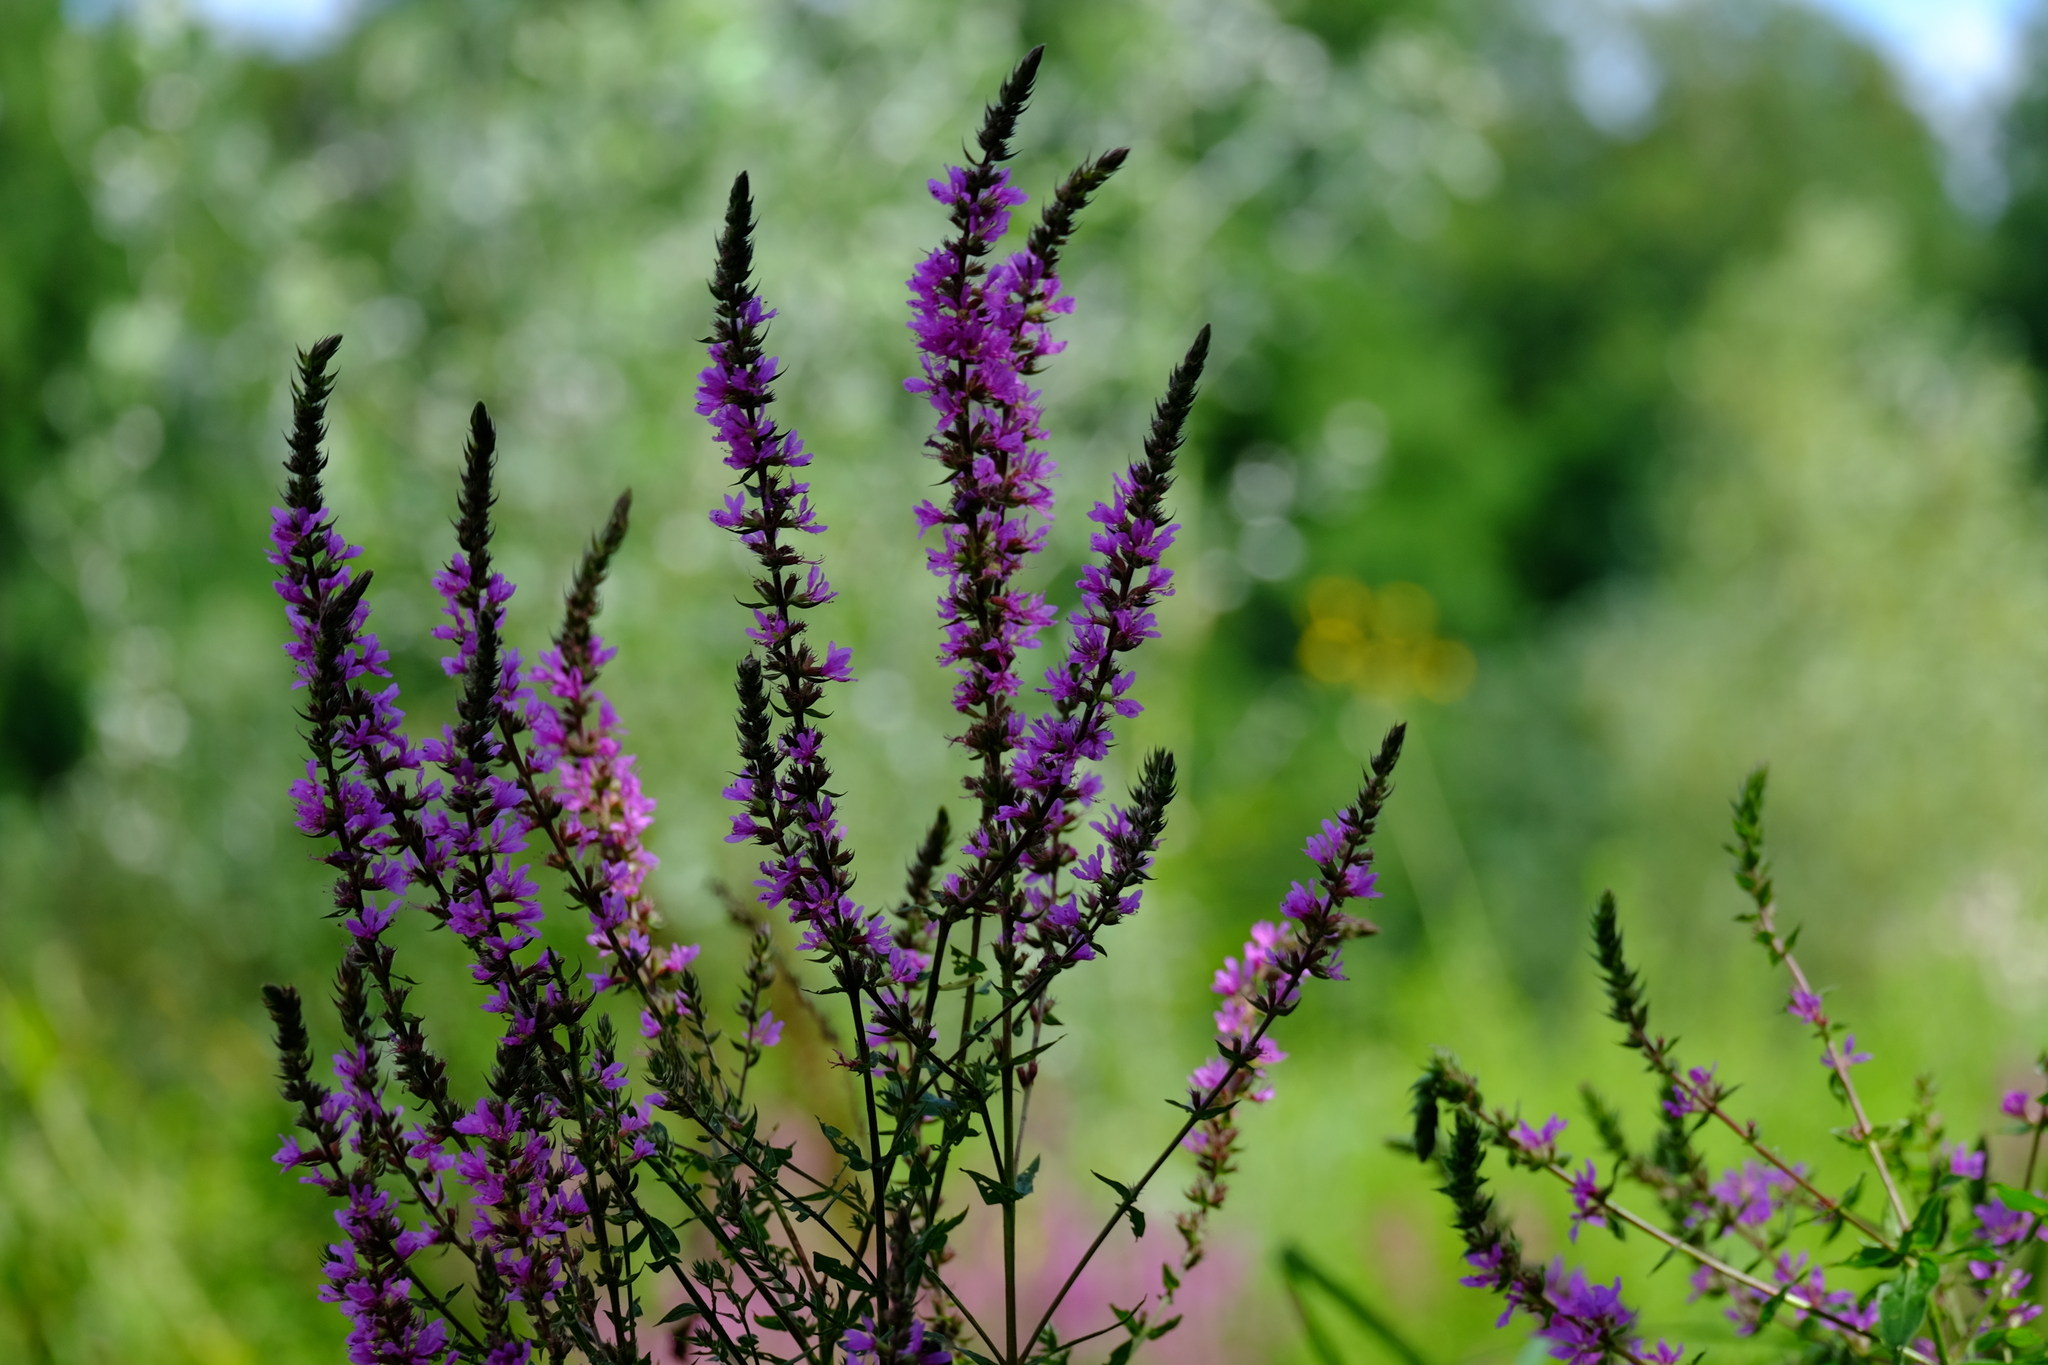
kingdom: Plantae
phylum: Tracheophyta
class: Magnoliopsida
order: Myrtales
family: Lythraceae
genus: Lythrum
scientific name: Lythrum salicaria
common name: Purple loosestrife
